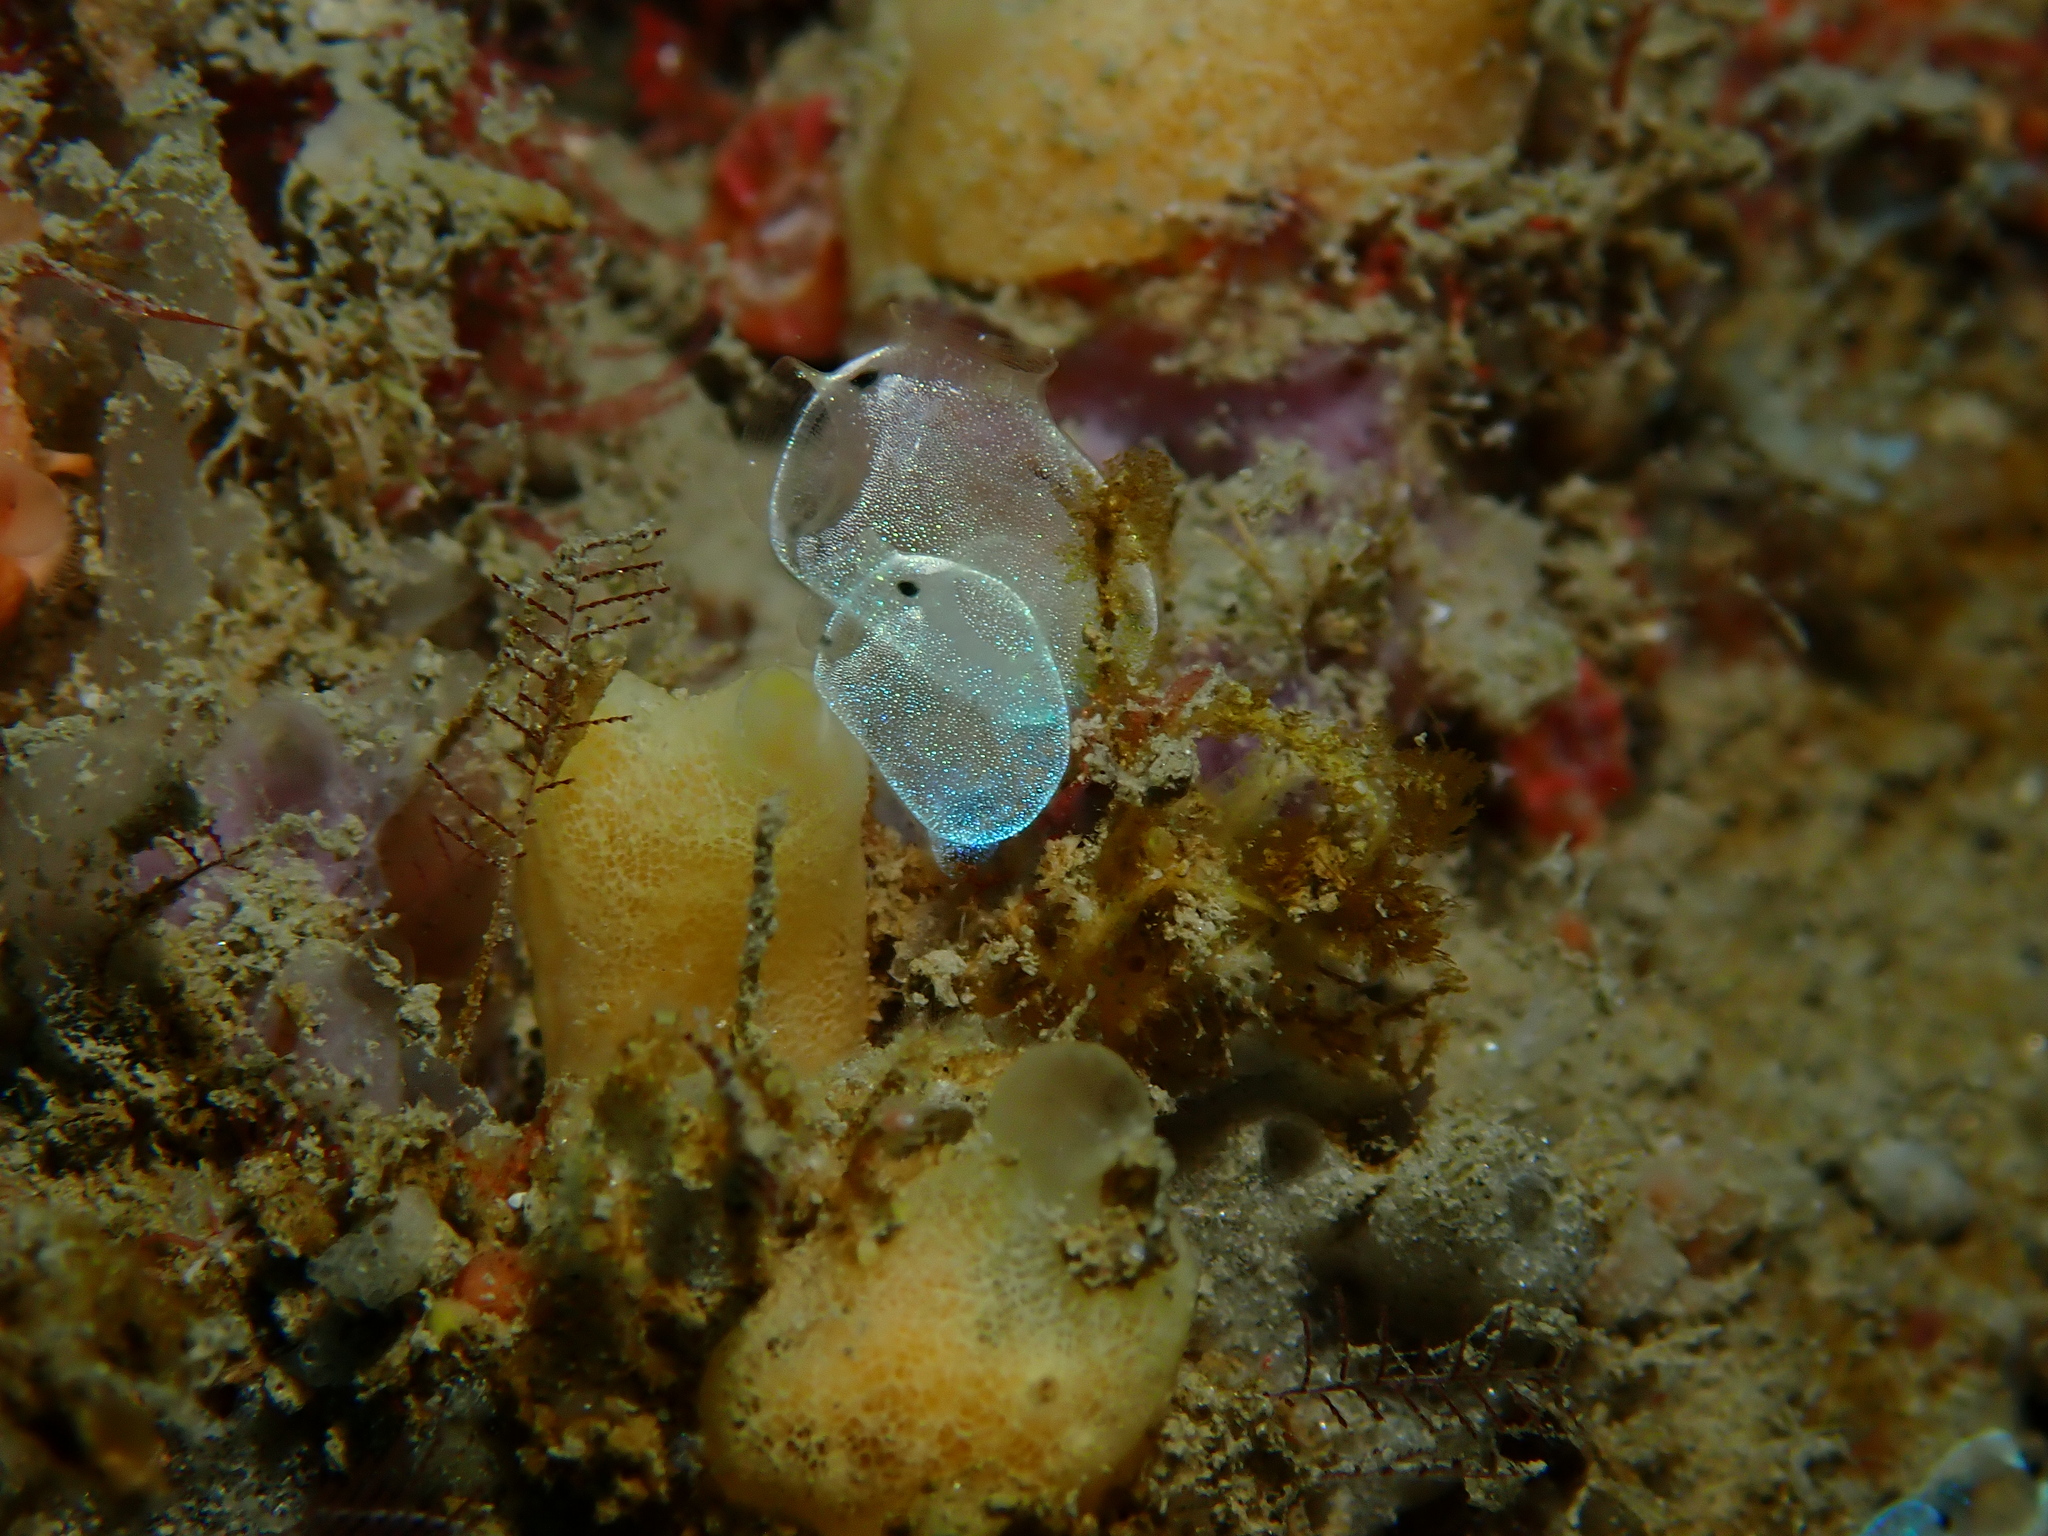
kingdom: Animalia
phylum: Chordata
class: Ascidiacea
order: Aplousobranchia
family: Clavelinidae
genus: Clavelina
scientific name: Clavelina obesa
